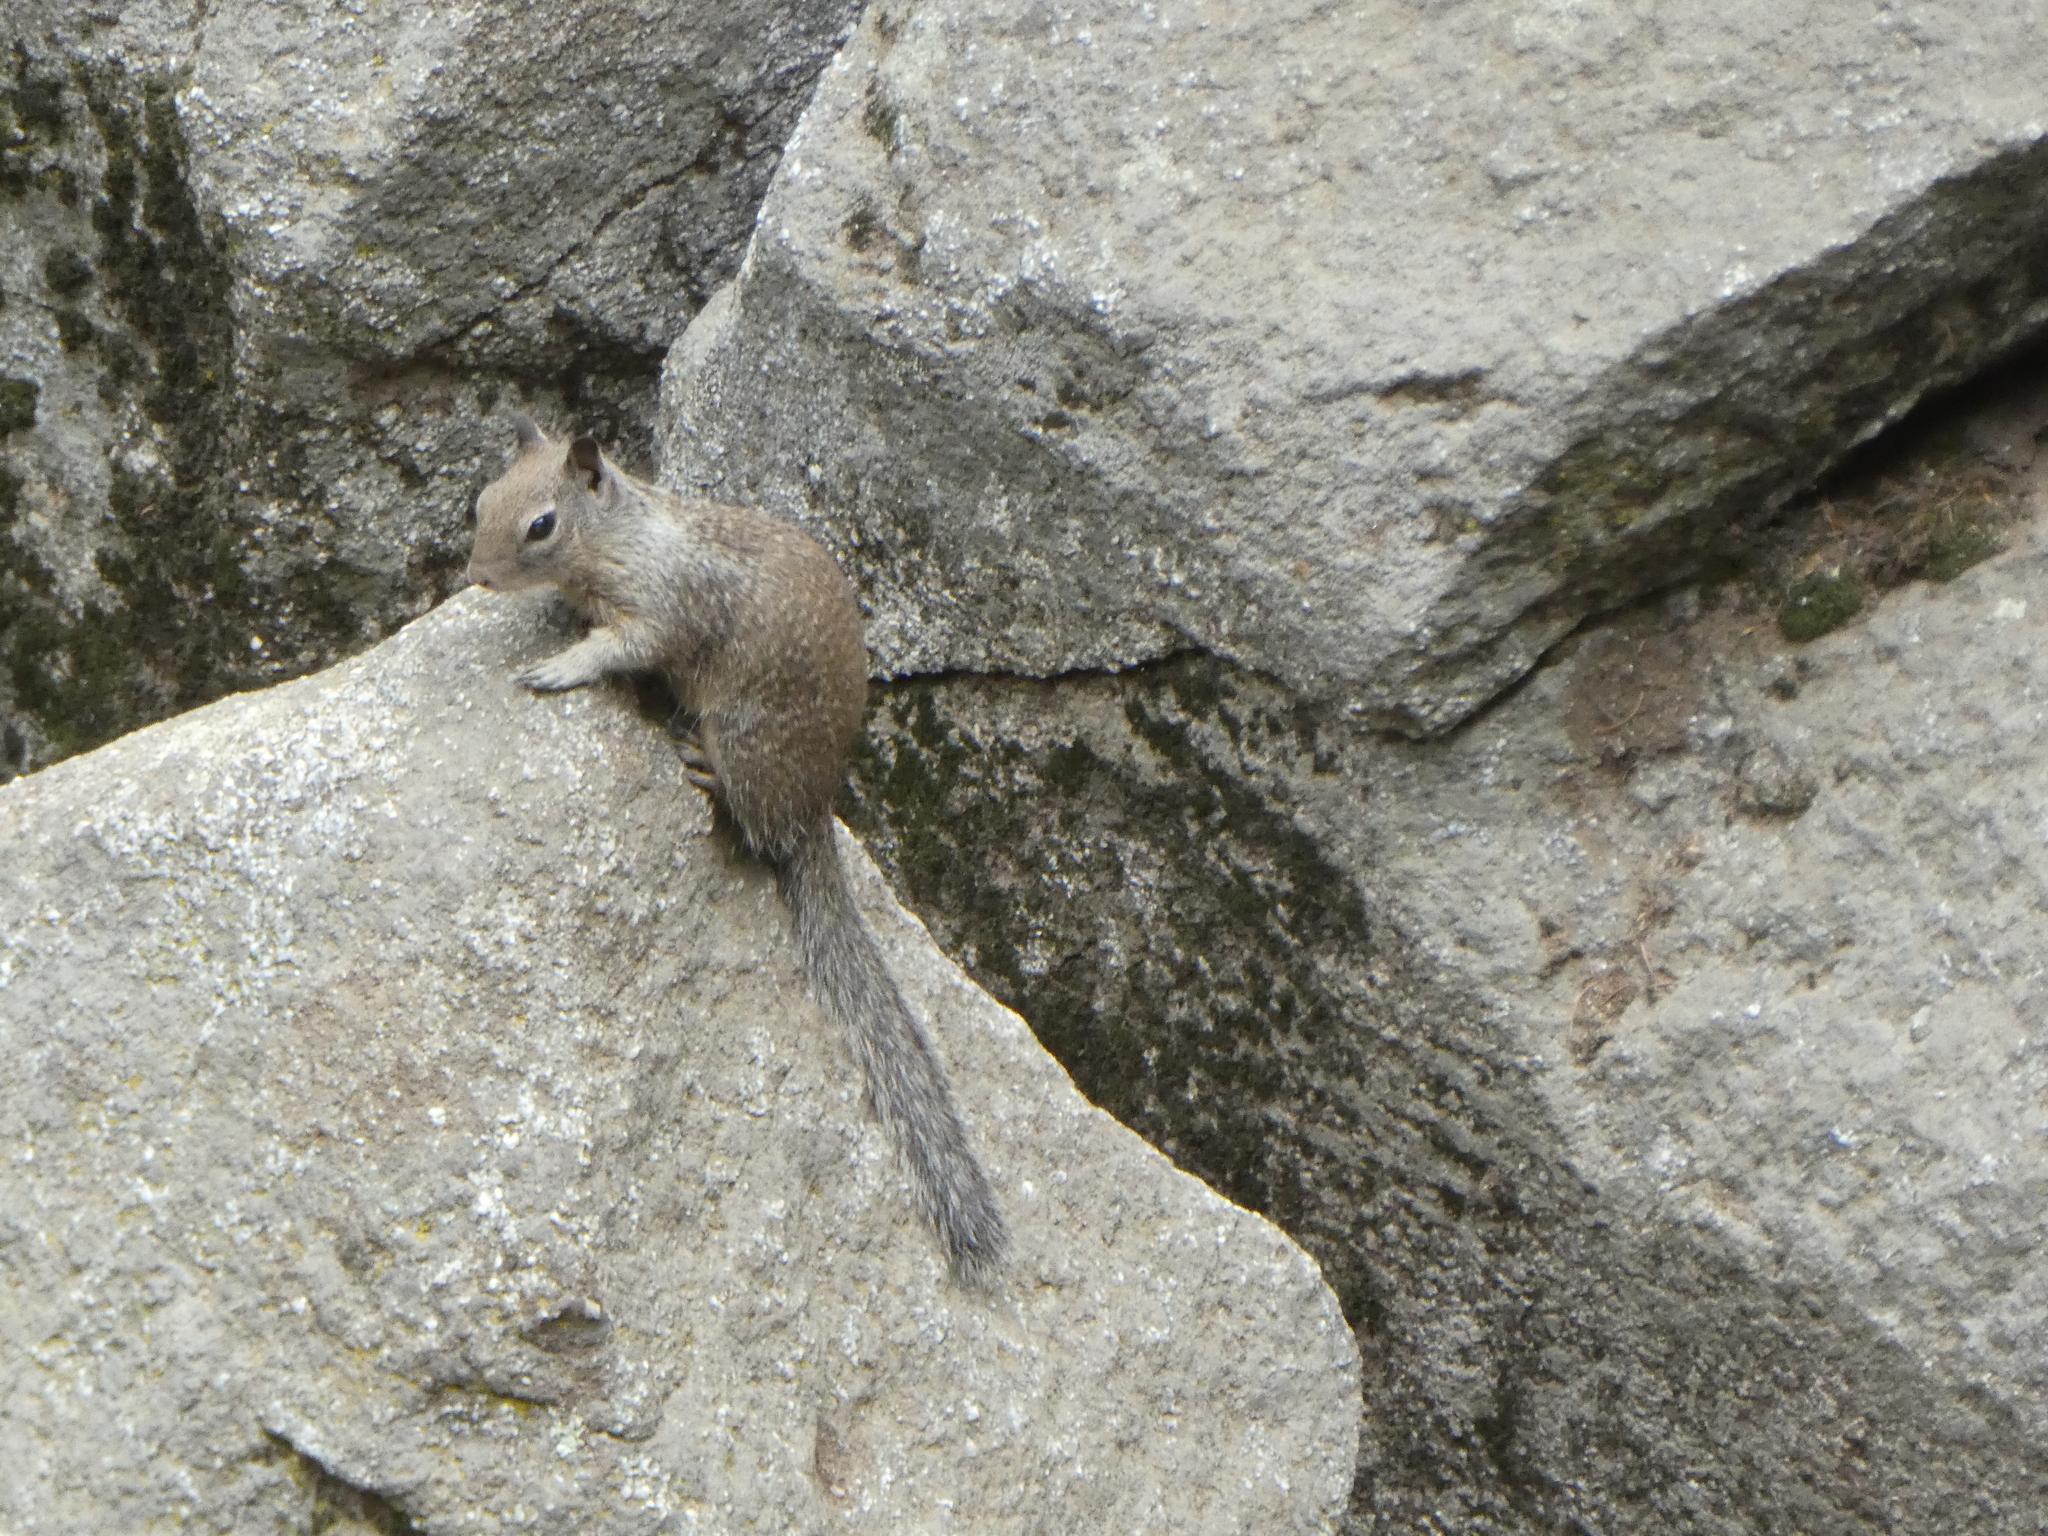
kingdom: Animalia
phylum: Chordata
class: Mammalia
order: Rodentia
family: Sciuridae
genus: Otospermophilus
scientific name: Otospermophilus beecheyi
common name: California ground squirrel
